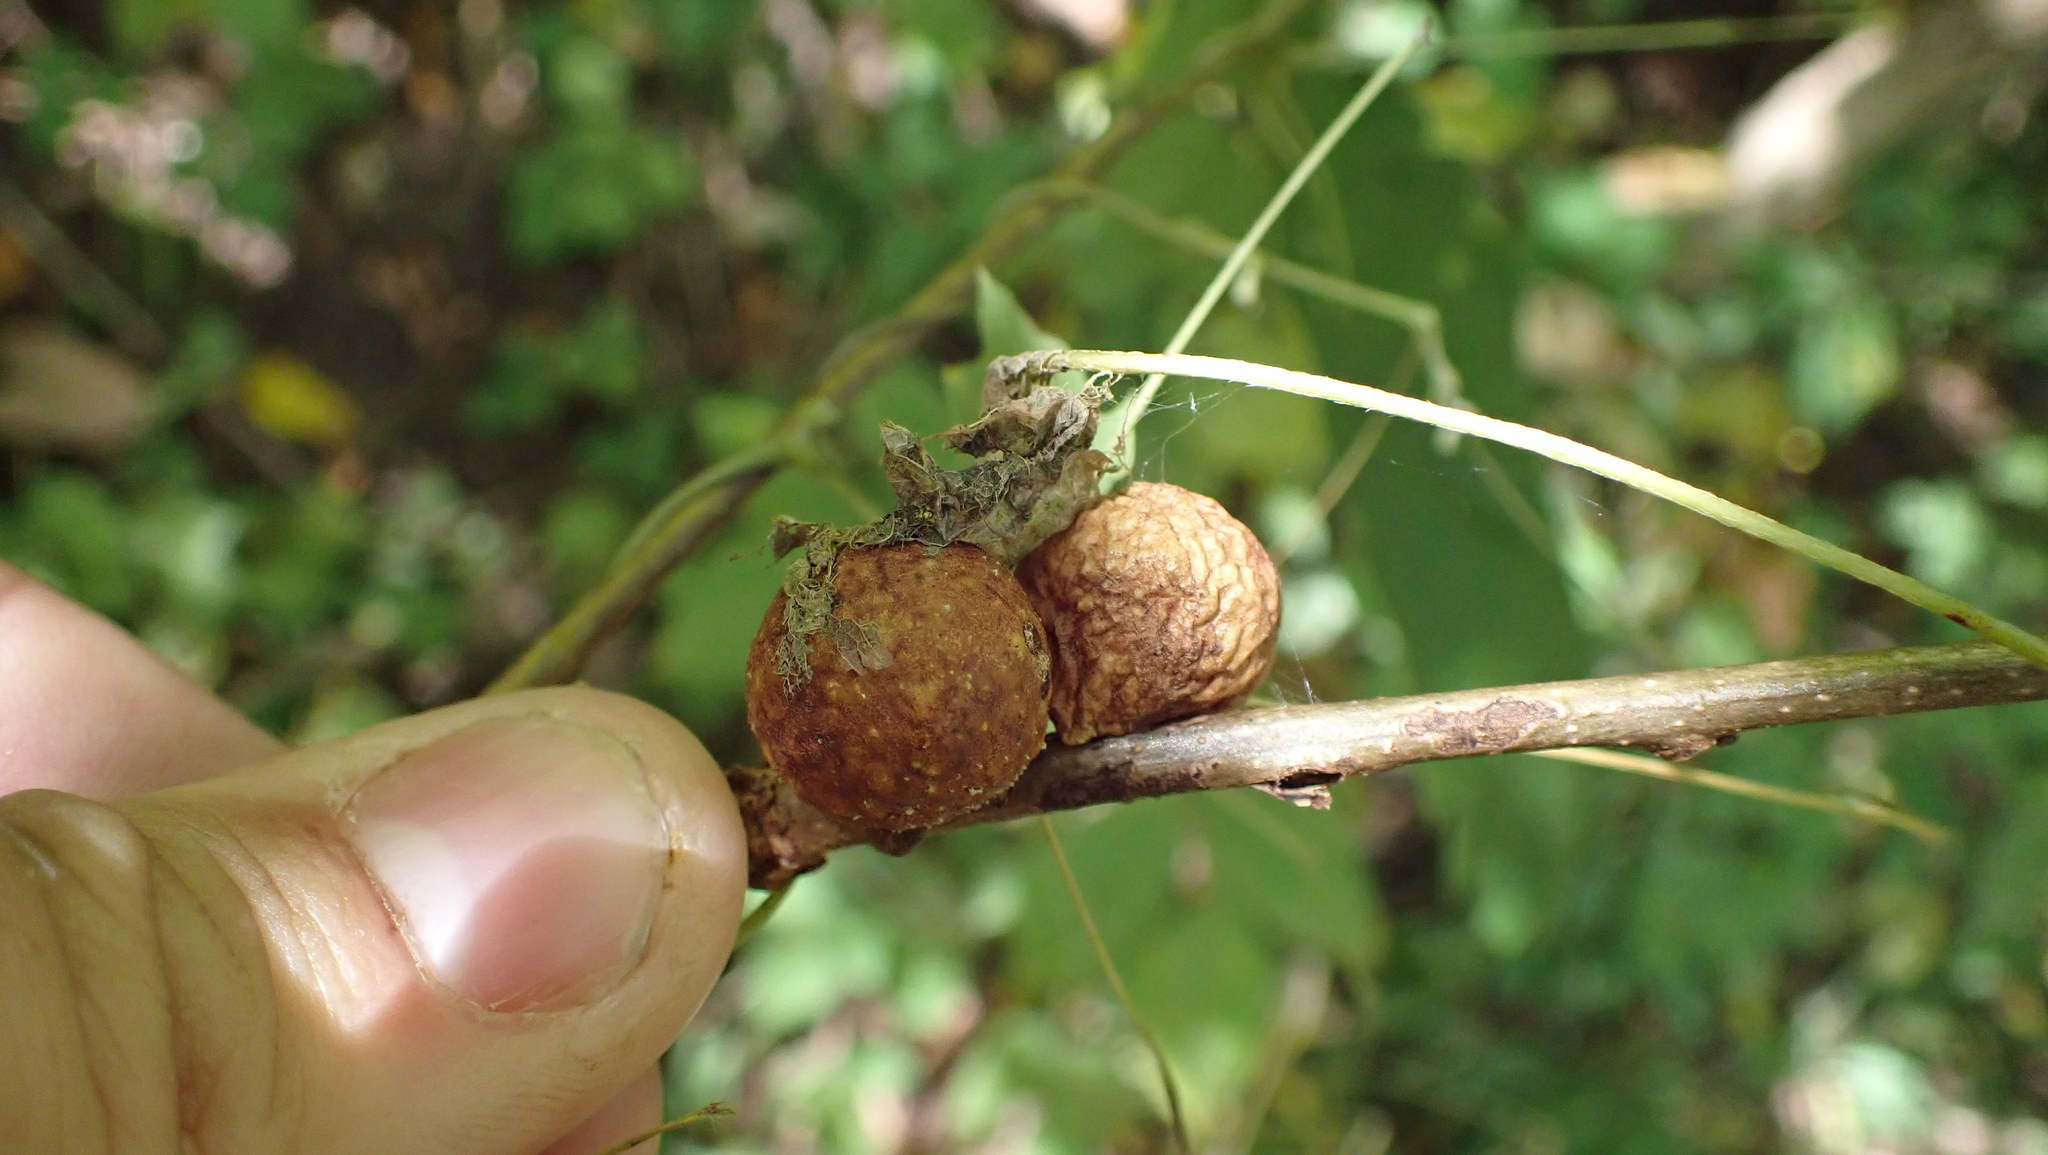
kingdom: Animalia
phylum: Arthropoda
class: Insecta
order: Hymenoptera
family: Cynipidae
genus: Disholcaspis
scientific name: Disholcaspis quercusglobulus
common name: Round bullet gall wasp
